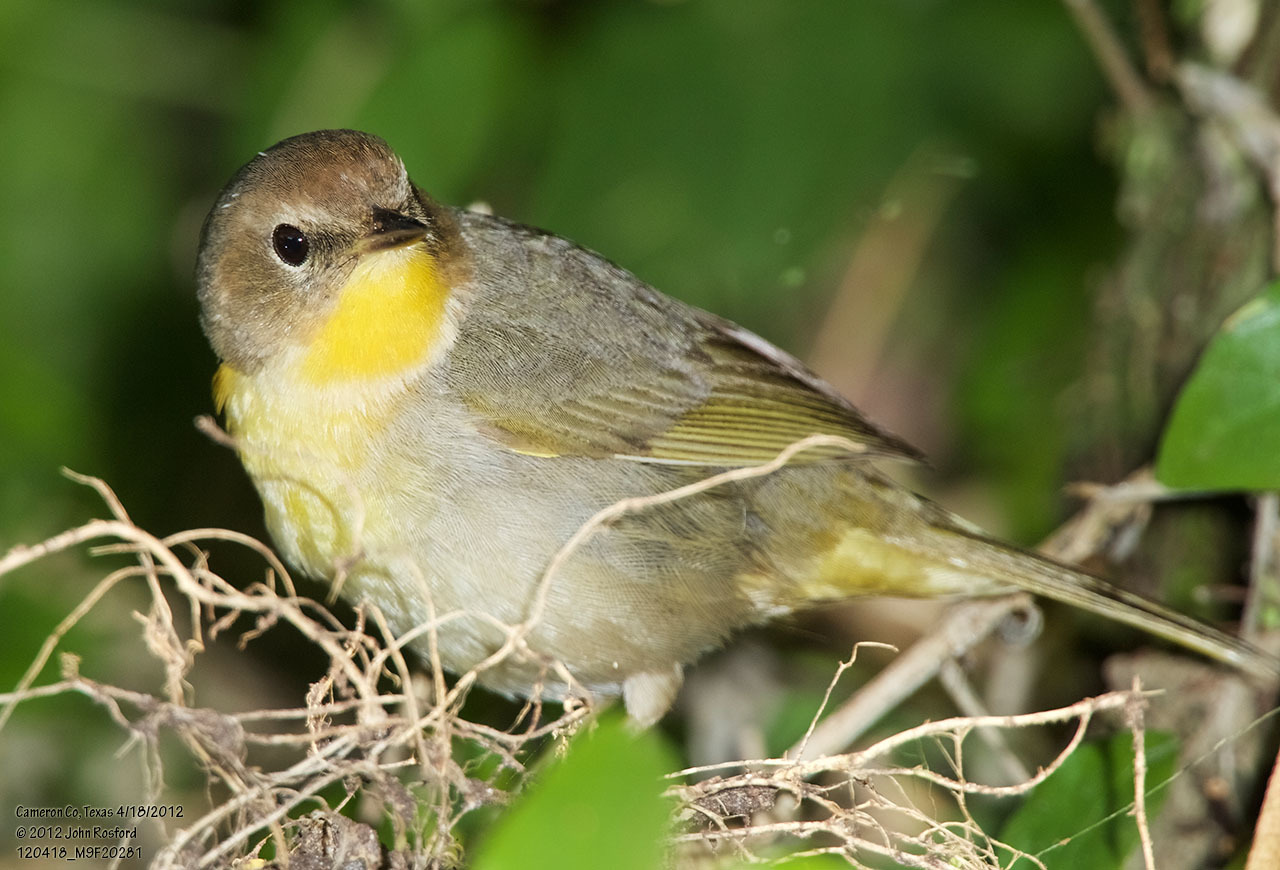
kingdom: Animalia
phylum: Chordata
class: Aves
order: Passeriformes
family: Parulidae
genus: Geothlypis
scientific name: Geothlypis trichas
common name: Common yellowthroat
